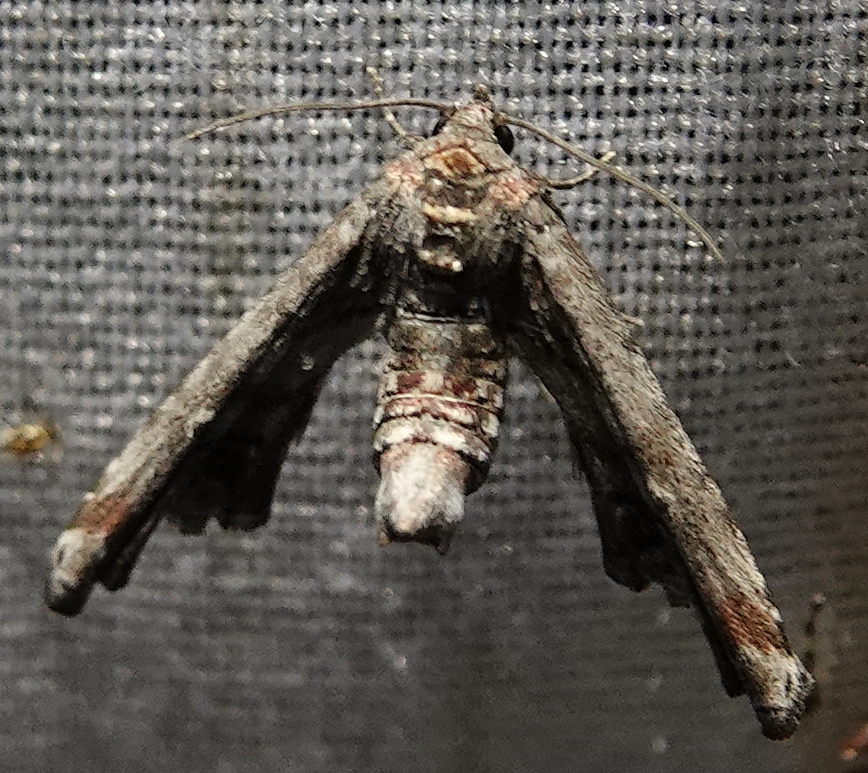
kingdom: Animalia
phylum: Arthropoda
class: Insecta
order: Lepidoptera
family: Euteliidae
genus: Marathyssa
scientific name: Marathyssa inficita
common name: Dark marathyssa moth
